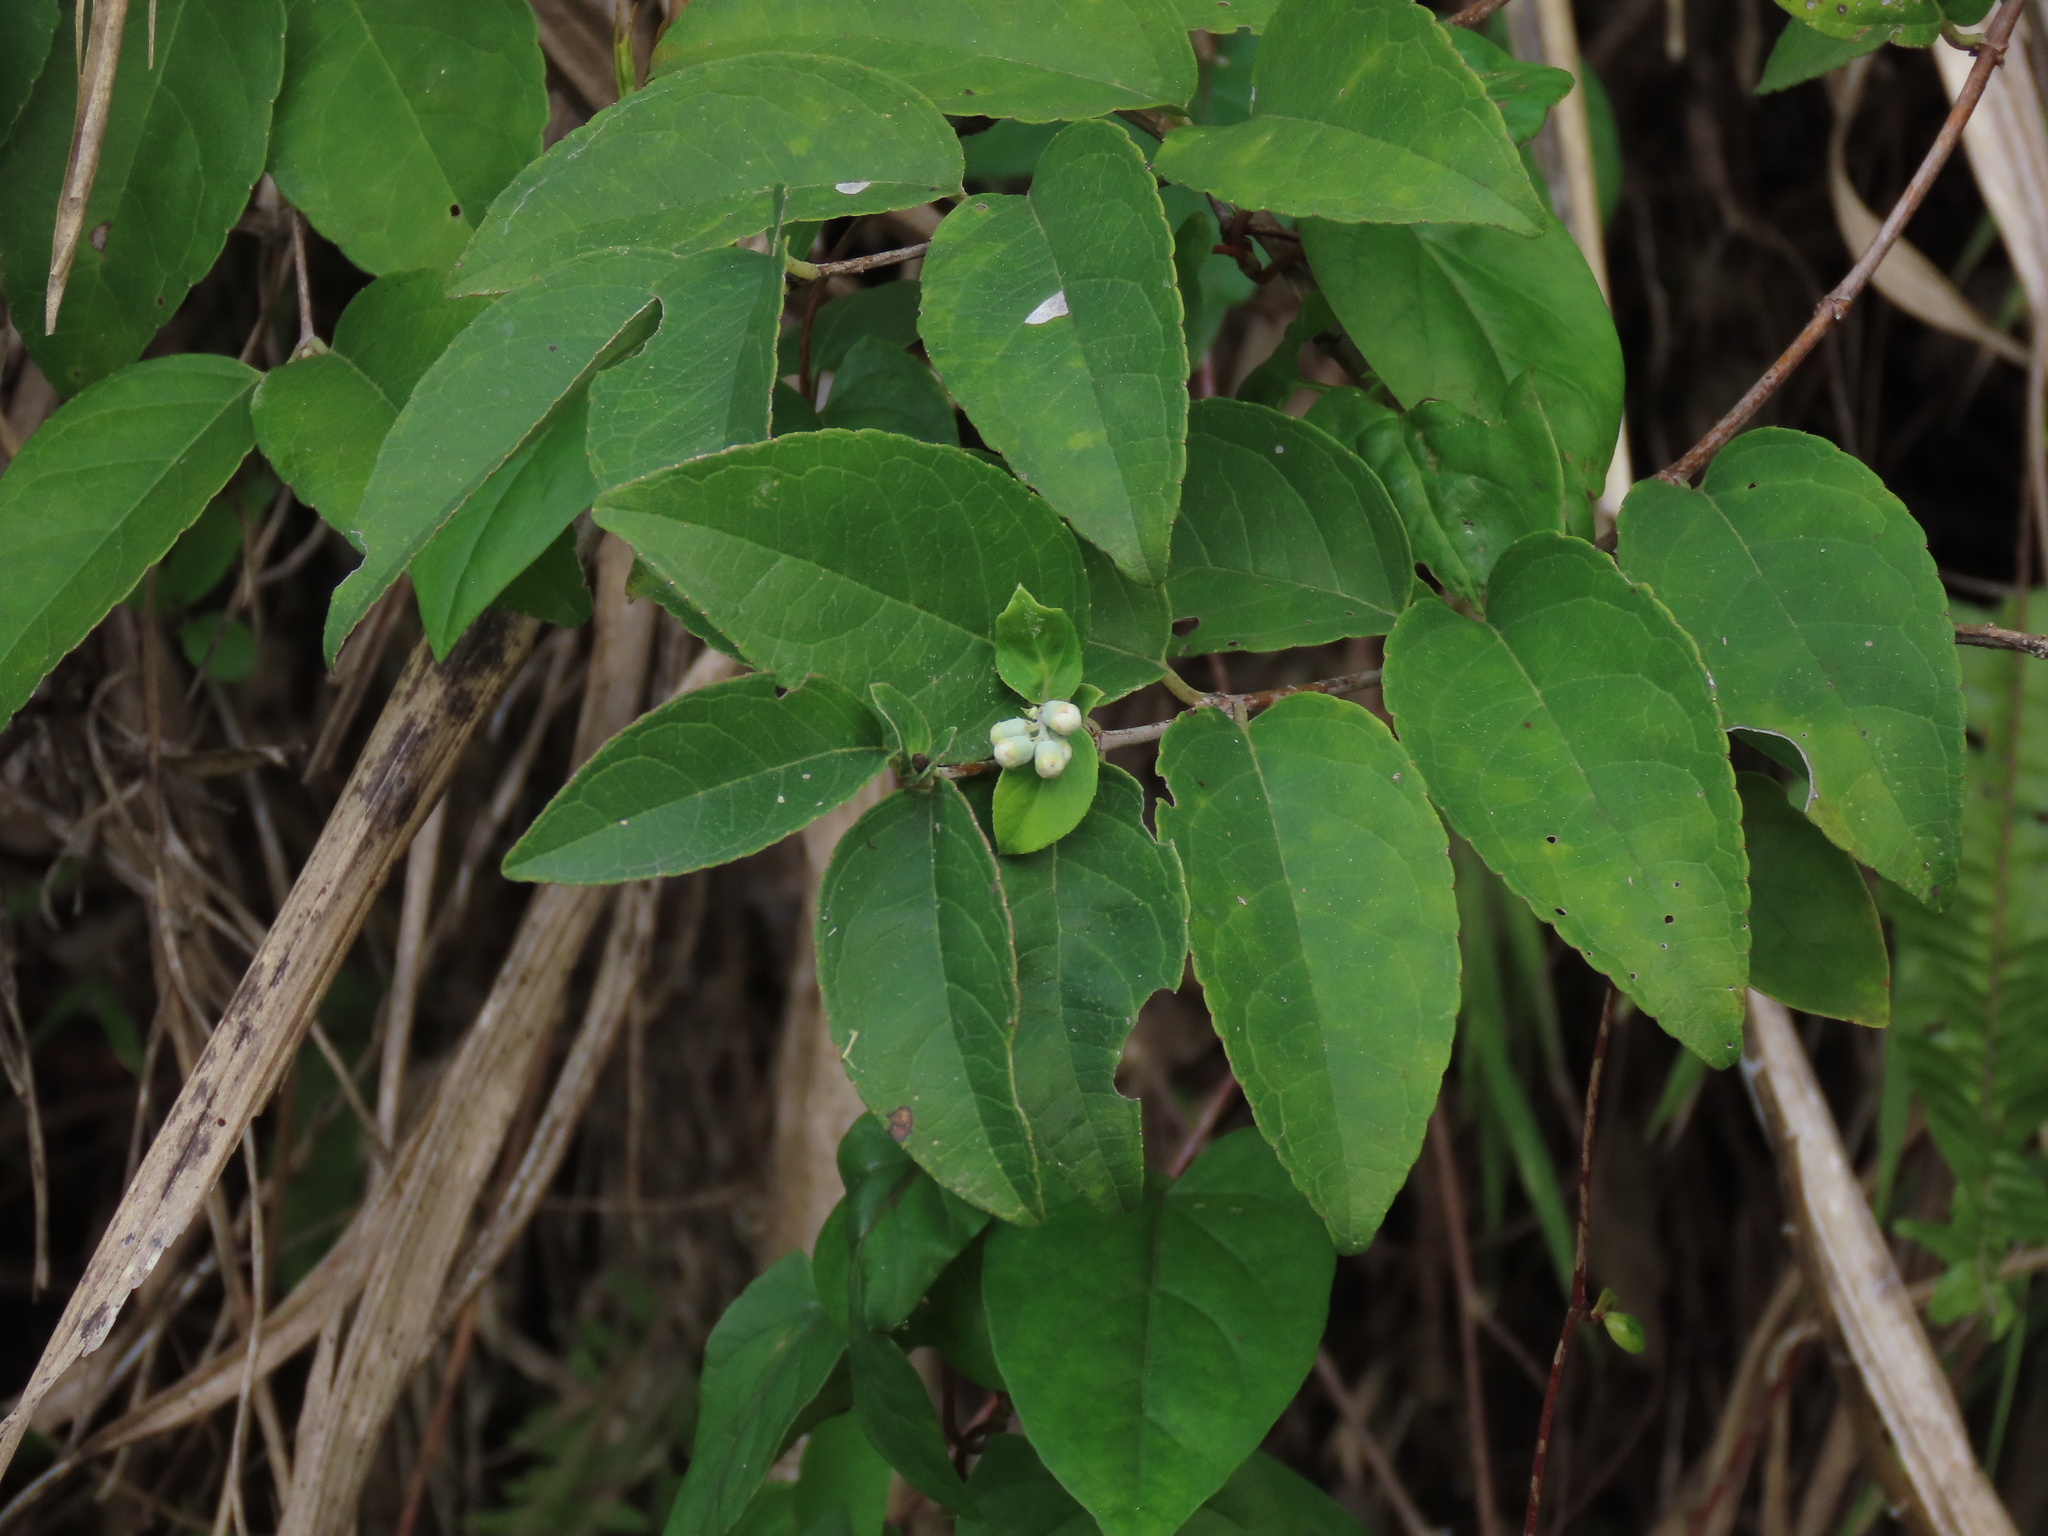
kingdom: Plantae
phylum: Tracheophyta
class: Magnoliopsida
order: Cornales
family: Hydrangeaceae
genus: Deutzia
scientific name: Deutzia pulchra
